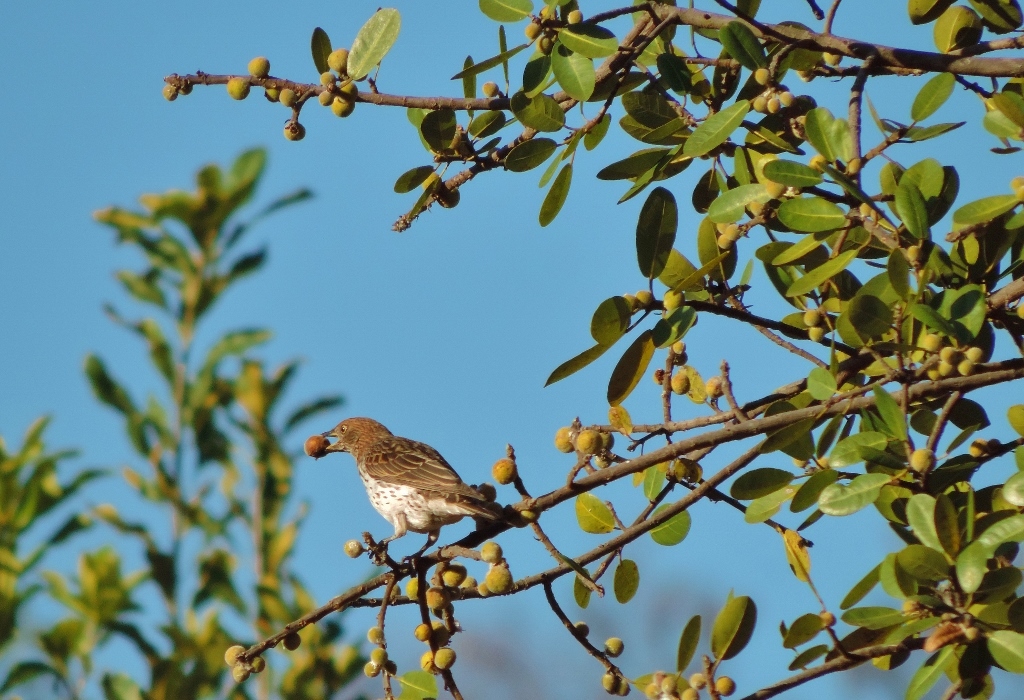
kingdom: Animalia
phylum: Chordata
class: Aves
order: Passeriformes
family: Sturnidae
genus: Cinnyricinclus
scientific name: Cinnyricinclus leucogaster
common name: Violet-backed starling
